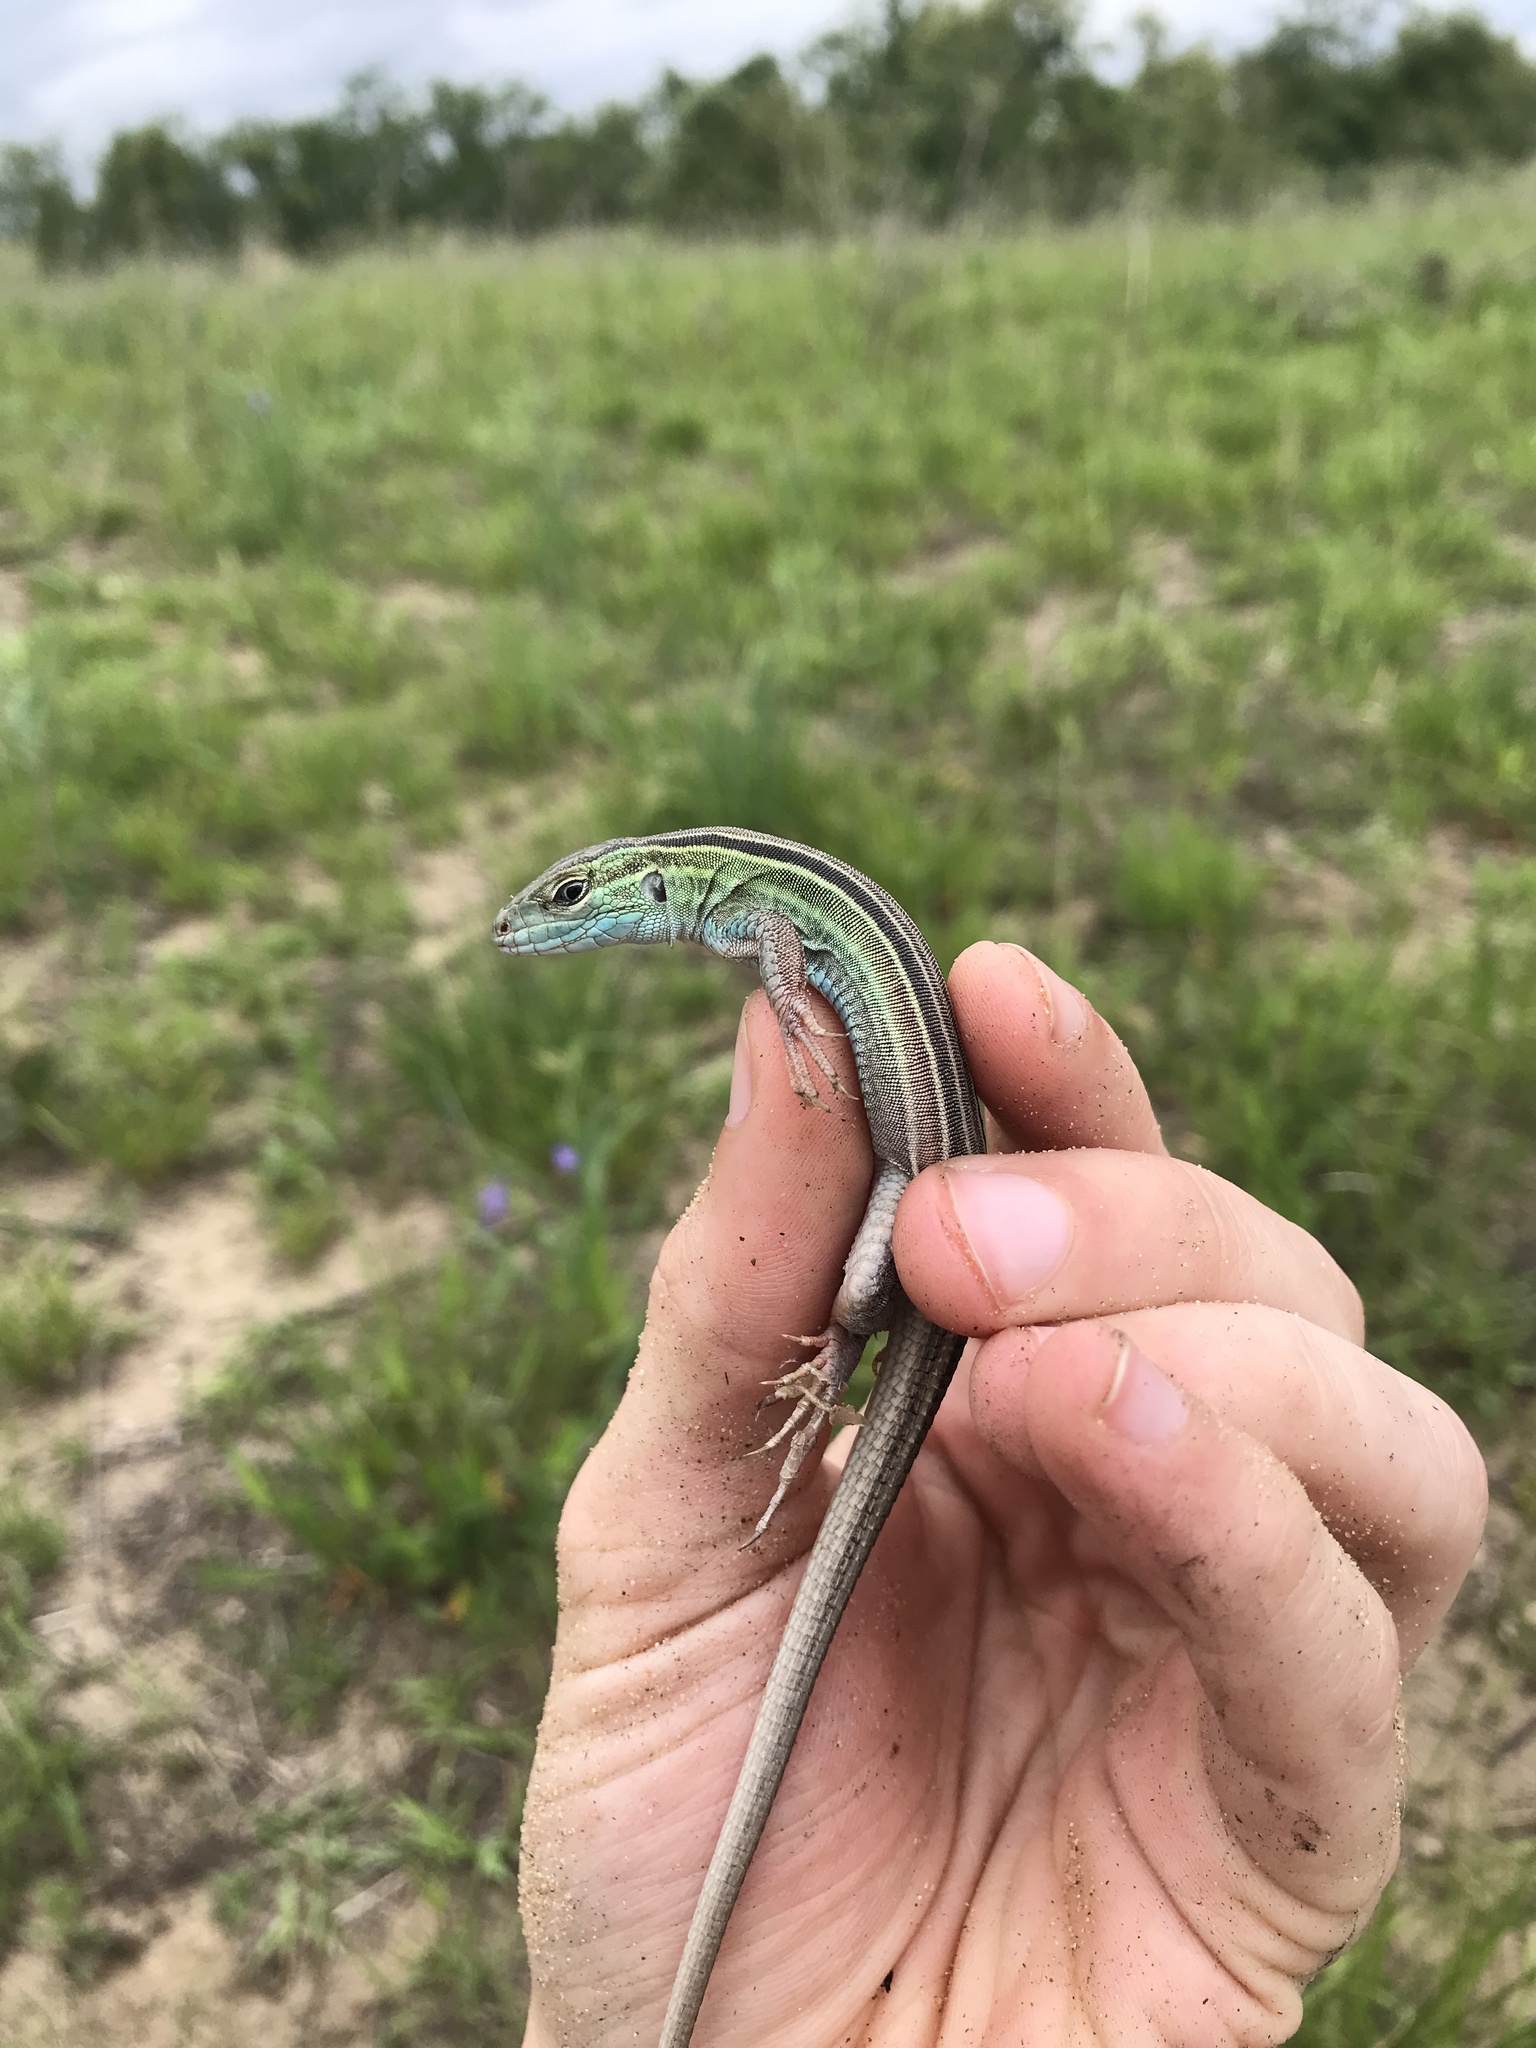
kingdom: Animalia
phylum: Chordata
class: Squamata
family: Teiidae
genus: Aspidoscelis
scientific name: Aspidoscelis sexlineatus
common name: Six-lined racerunner
